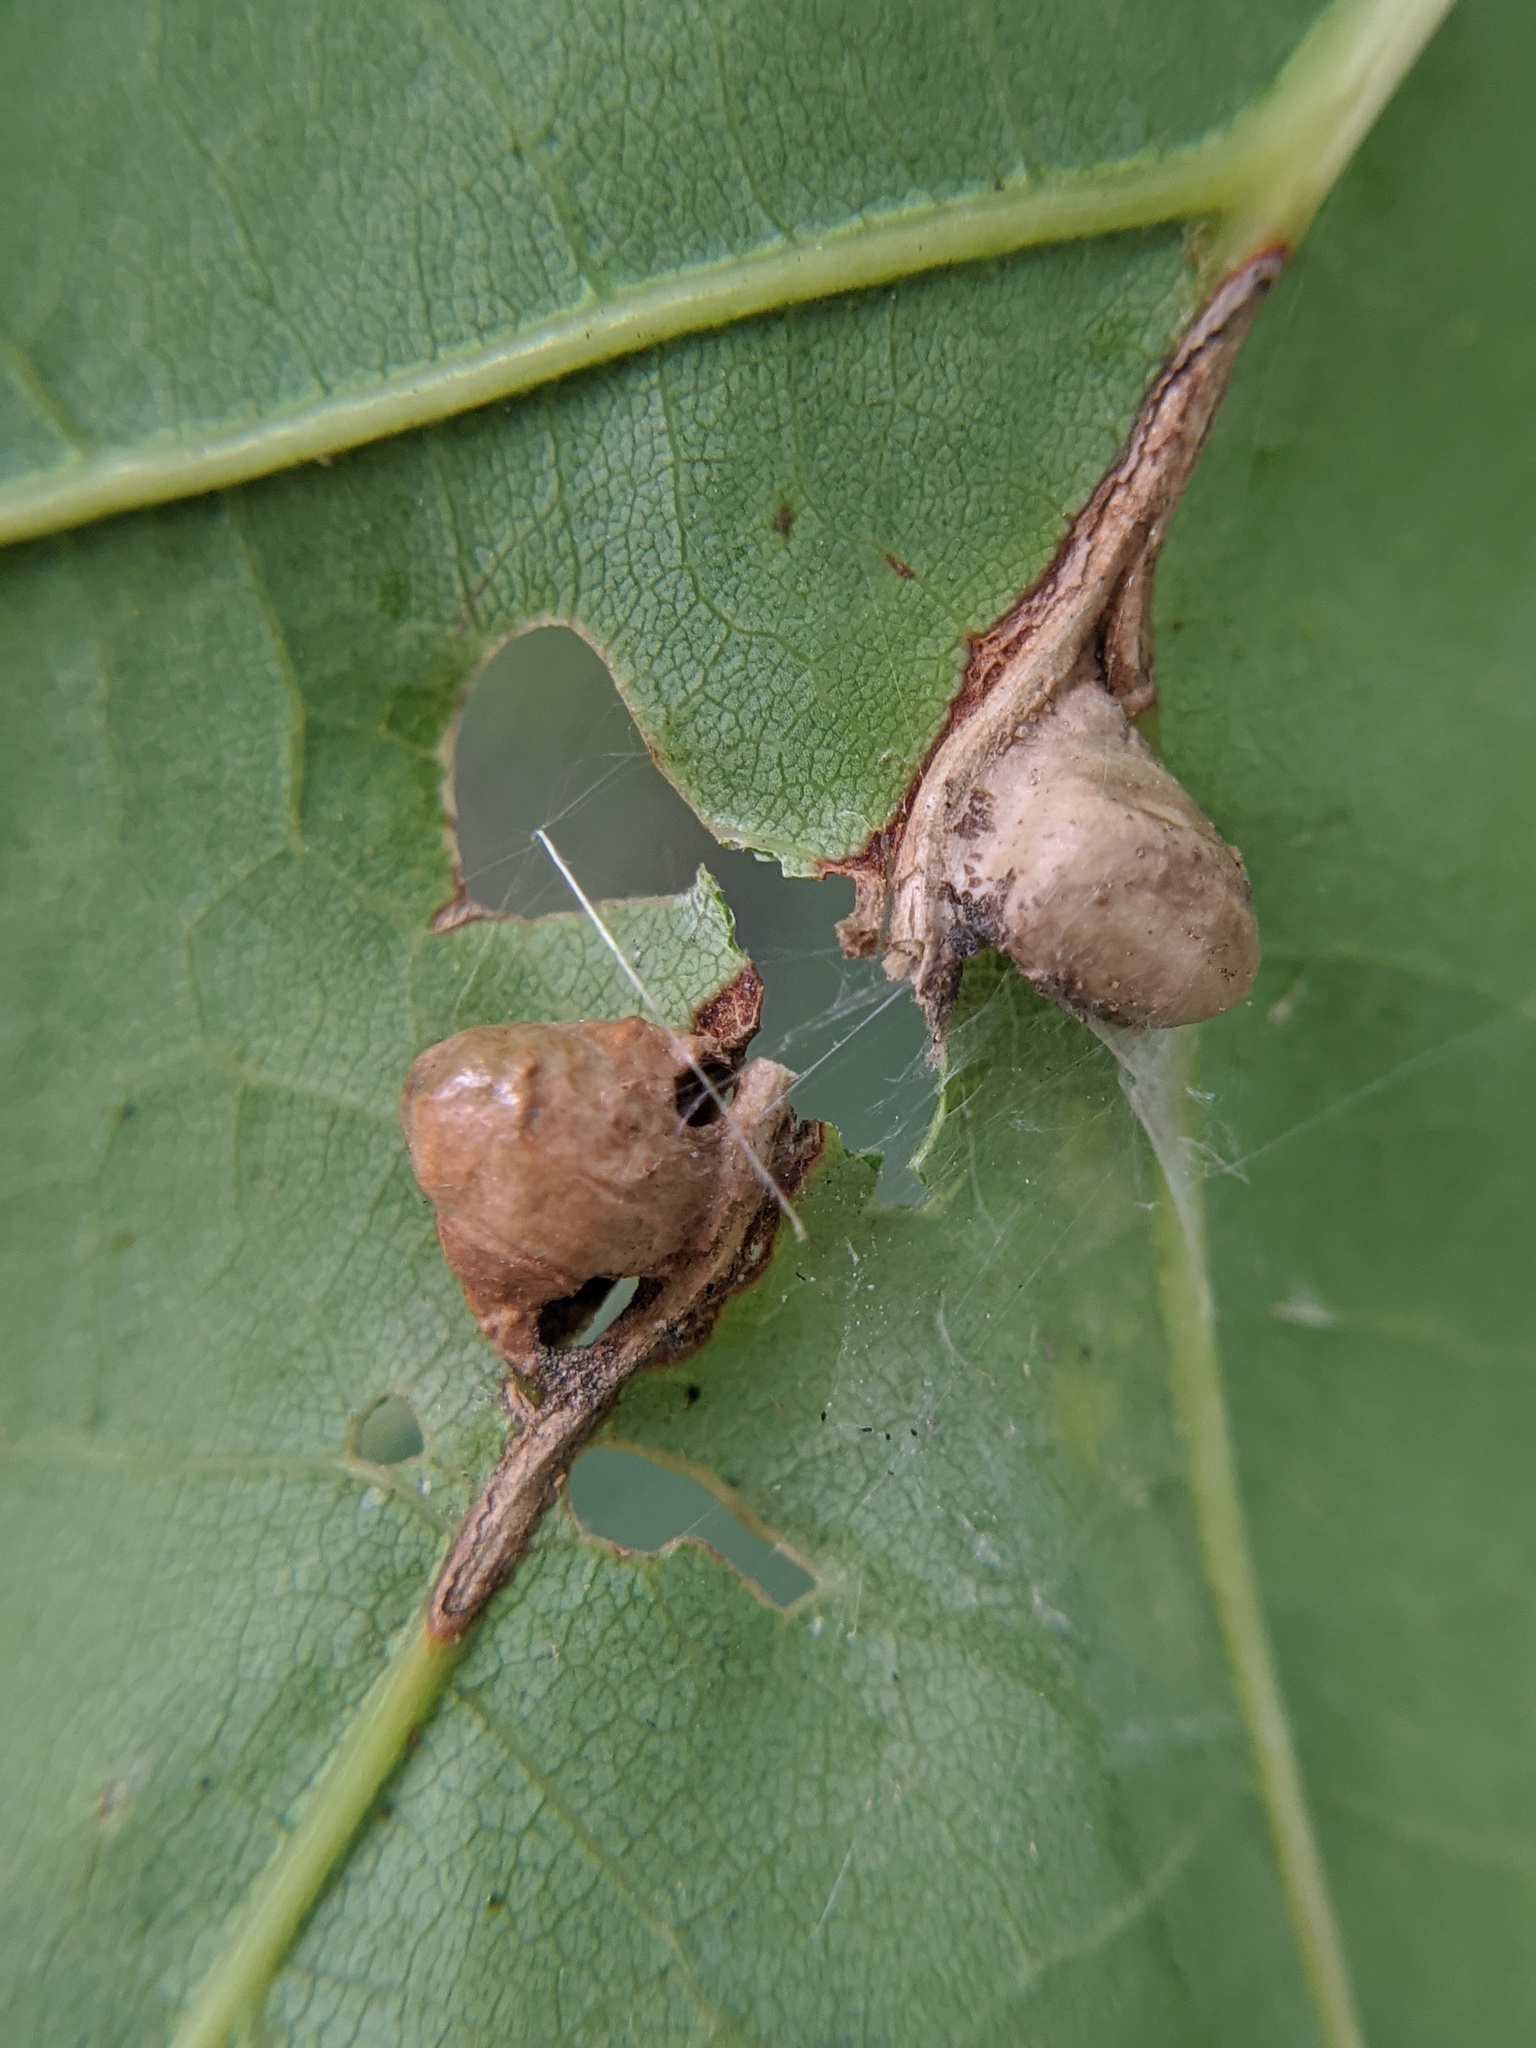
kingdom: Animalia
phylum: Arthropoda
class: Insecta
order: Diptera
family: Cecidomyiidae
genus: Macrodiplosis
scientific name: Macrodiplosis majalis
